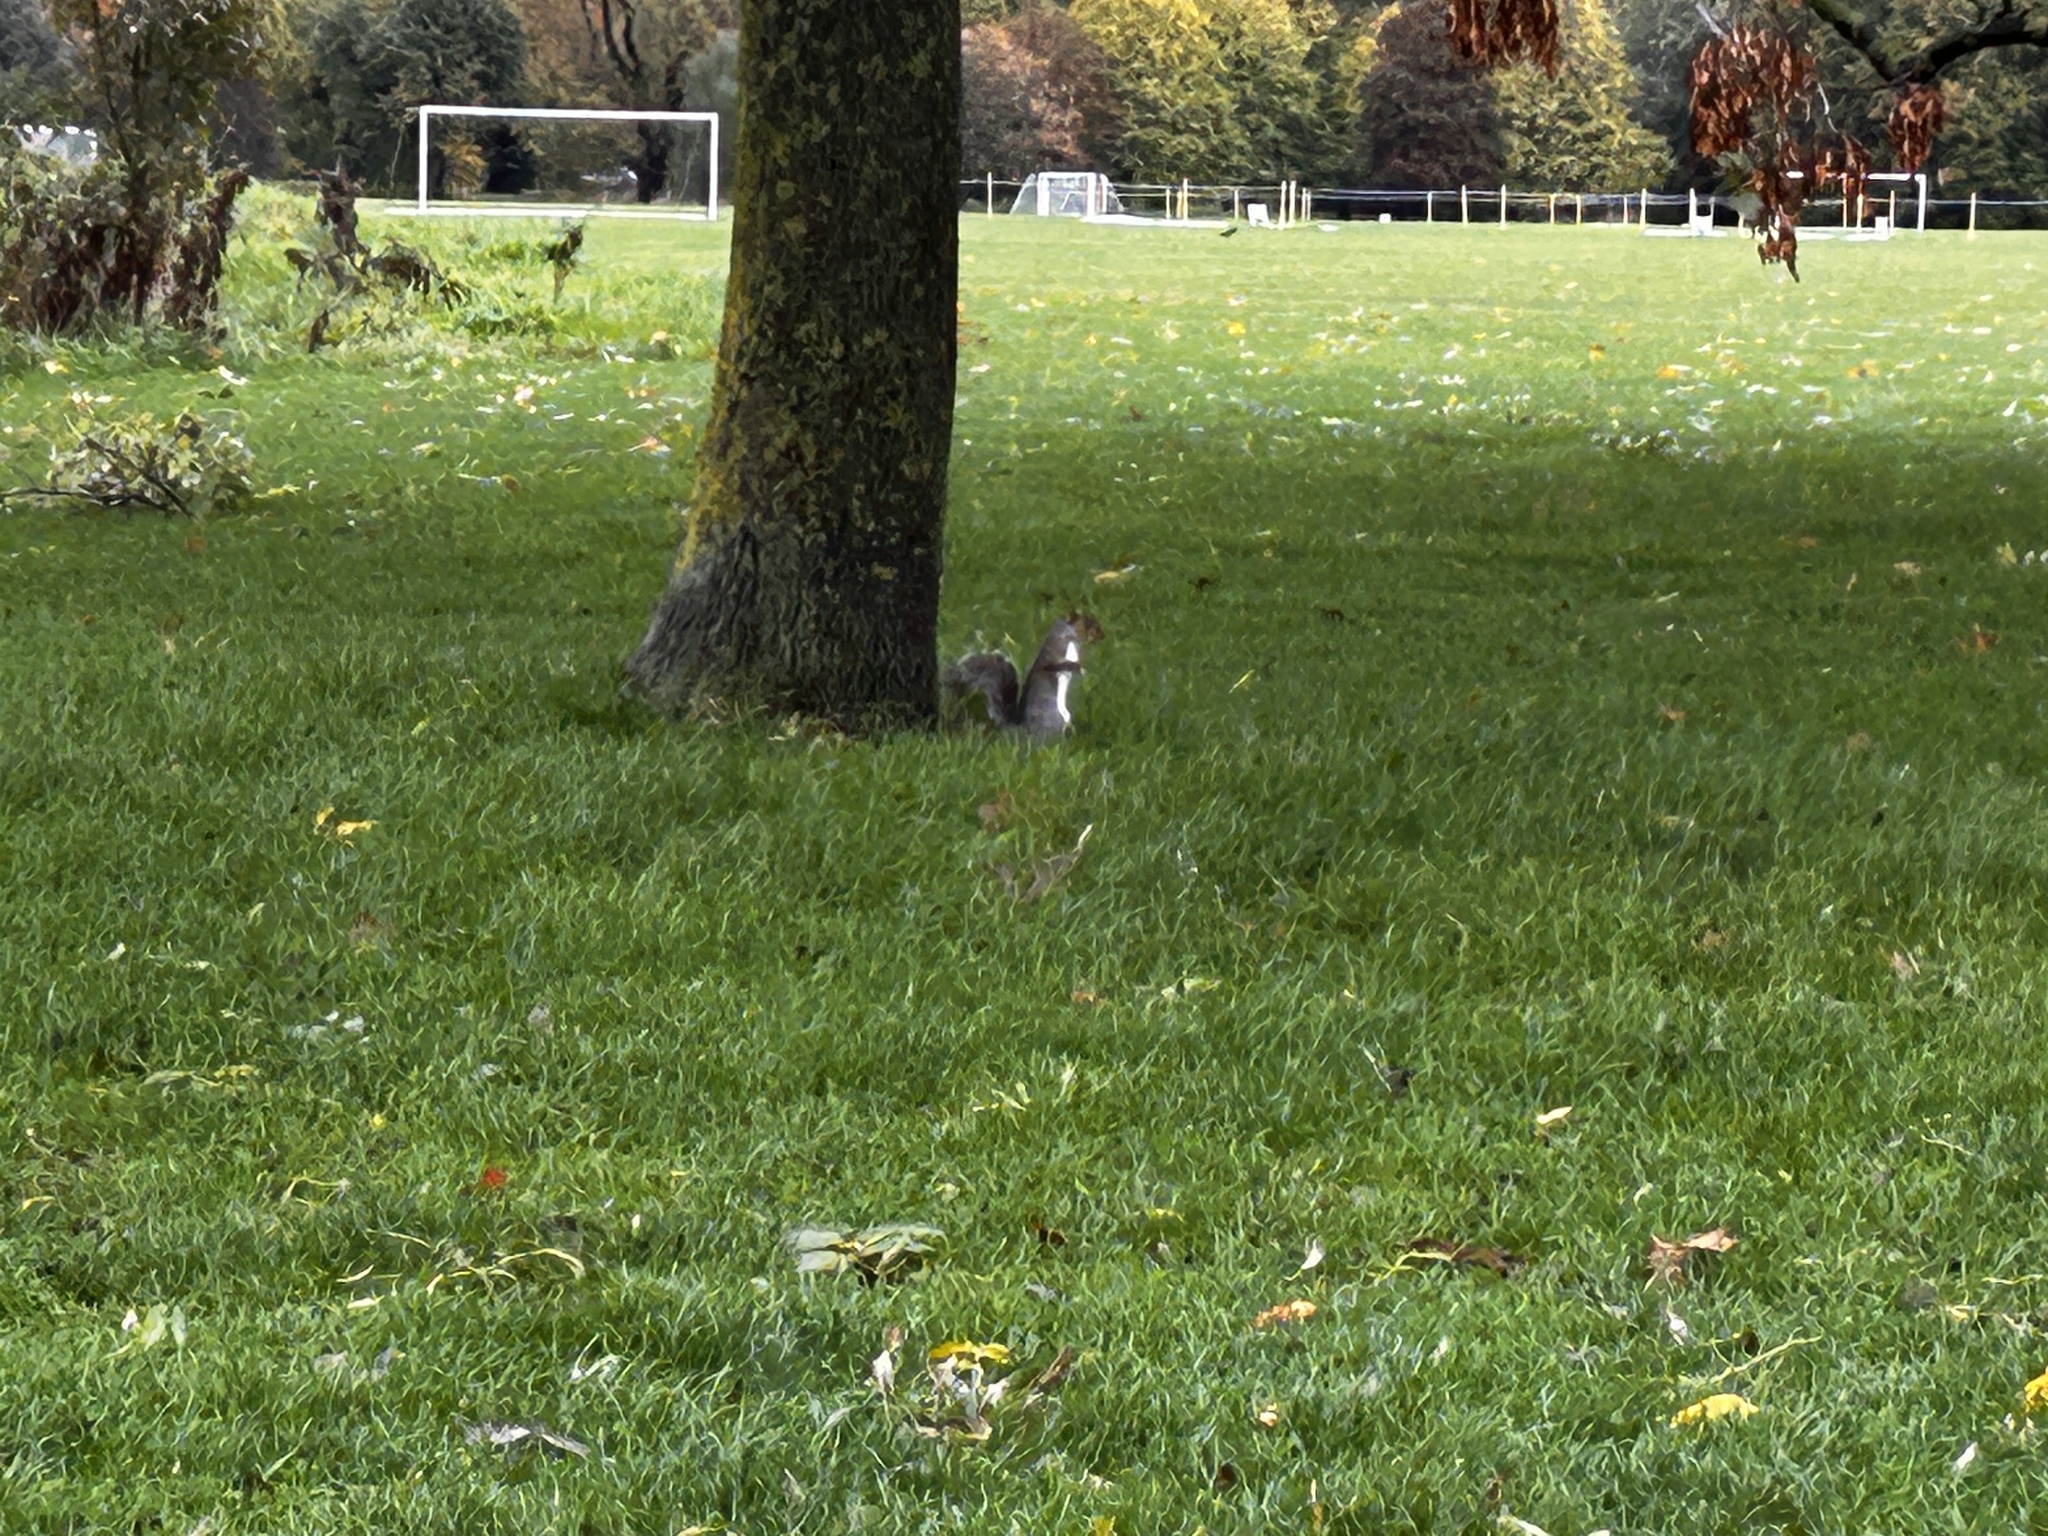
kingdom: Animalia
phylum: Chordata
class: Mammalia
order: Rodentia
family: Sciuridae
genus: Sciurus
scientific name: Sciurus carolinensis
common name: Eastern gray squirrel
